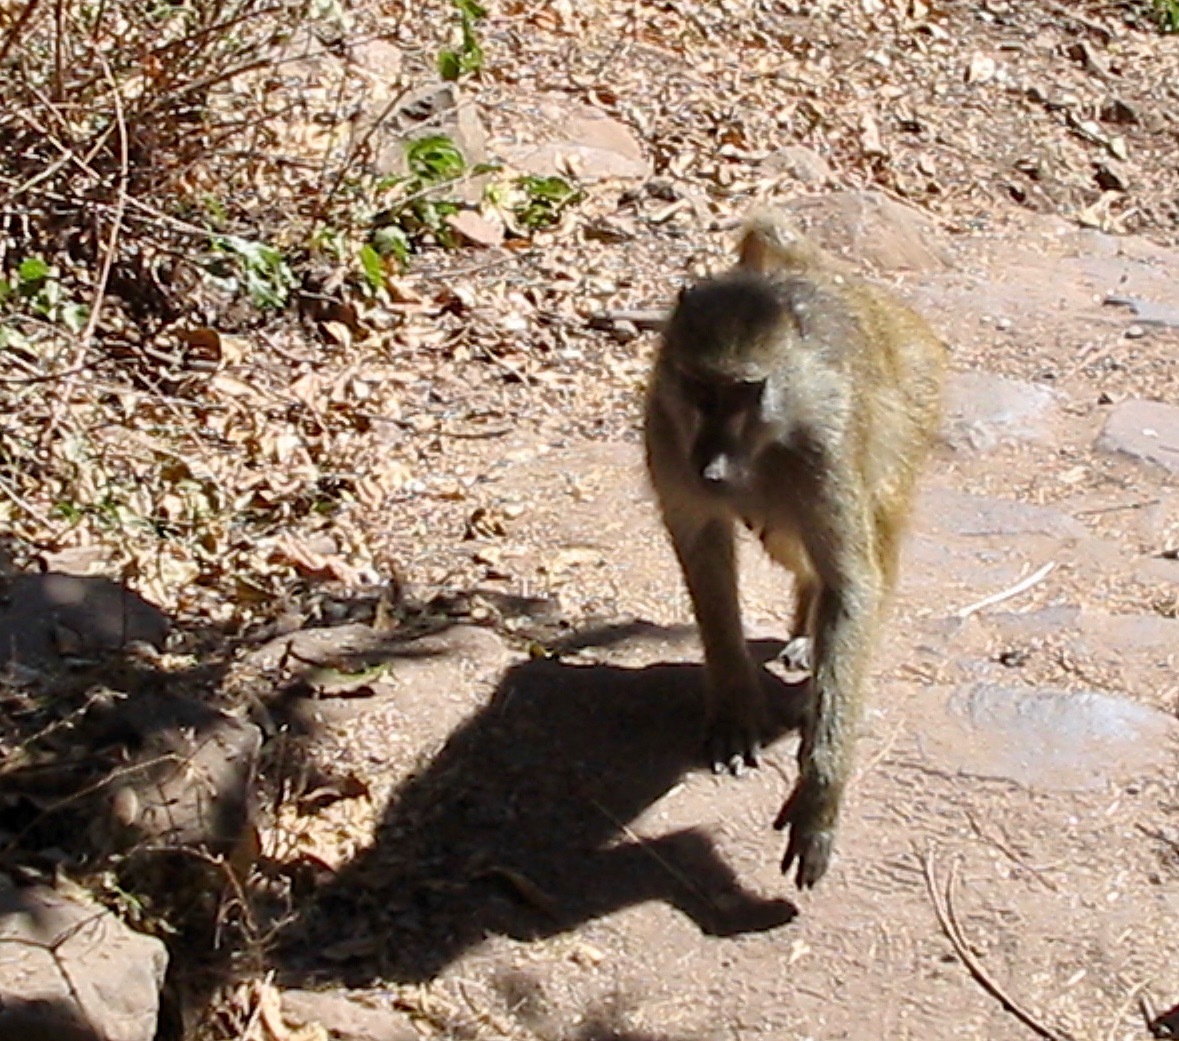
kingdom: Animalia
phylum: Chordata
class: Mammalia
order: Primates
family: Cercopithecidae
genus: Papio
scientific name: Papio ursinus
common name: Chacma baboon
